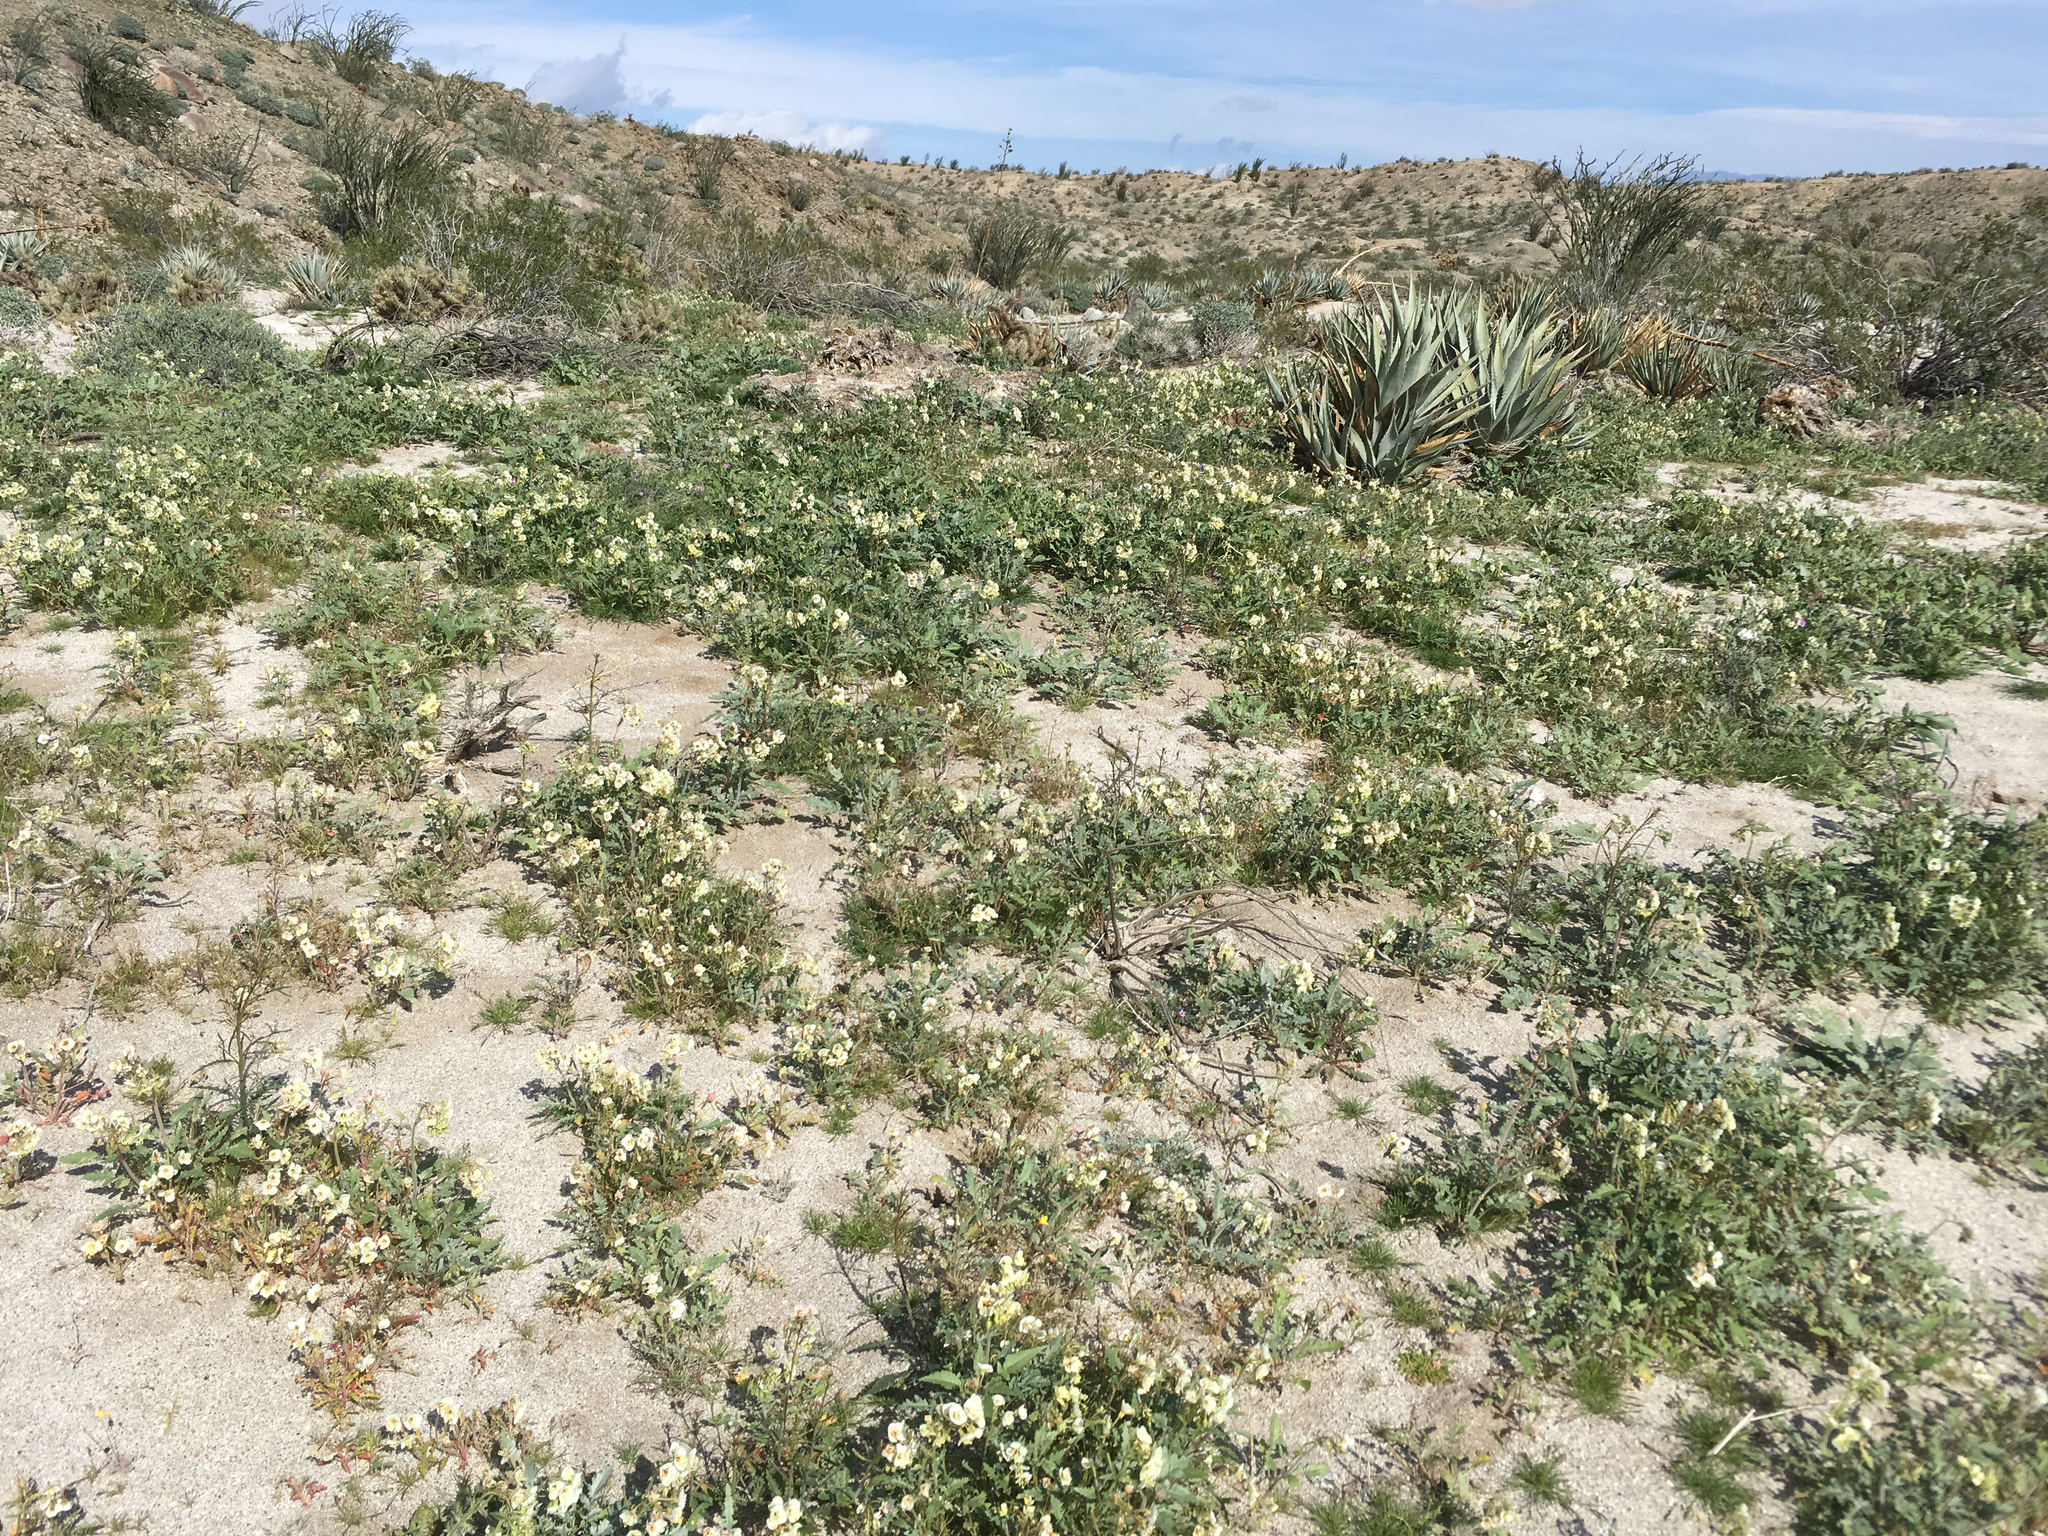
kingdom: Plantae
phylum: Tracheophyta
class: Magnoliopsida
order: Myrtales
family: Onagraceae
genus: Chylismia
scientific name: Chylismia claviformis
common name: Browneyes
